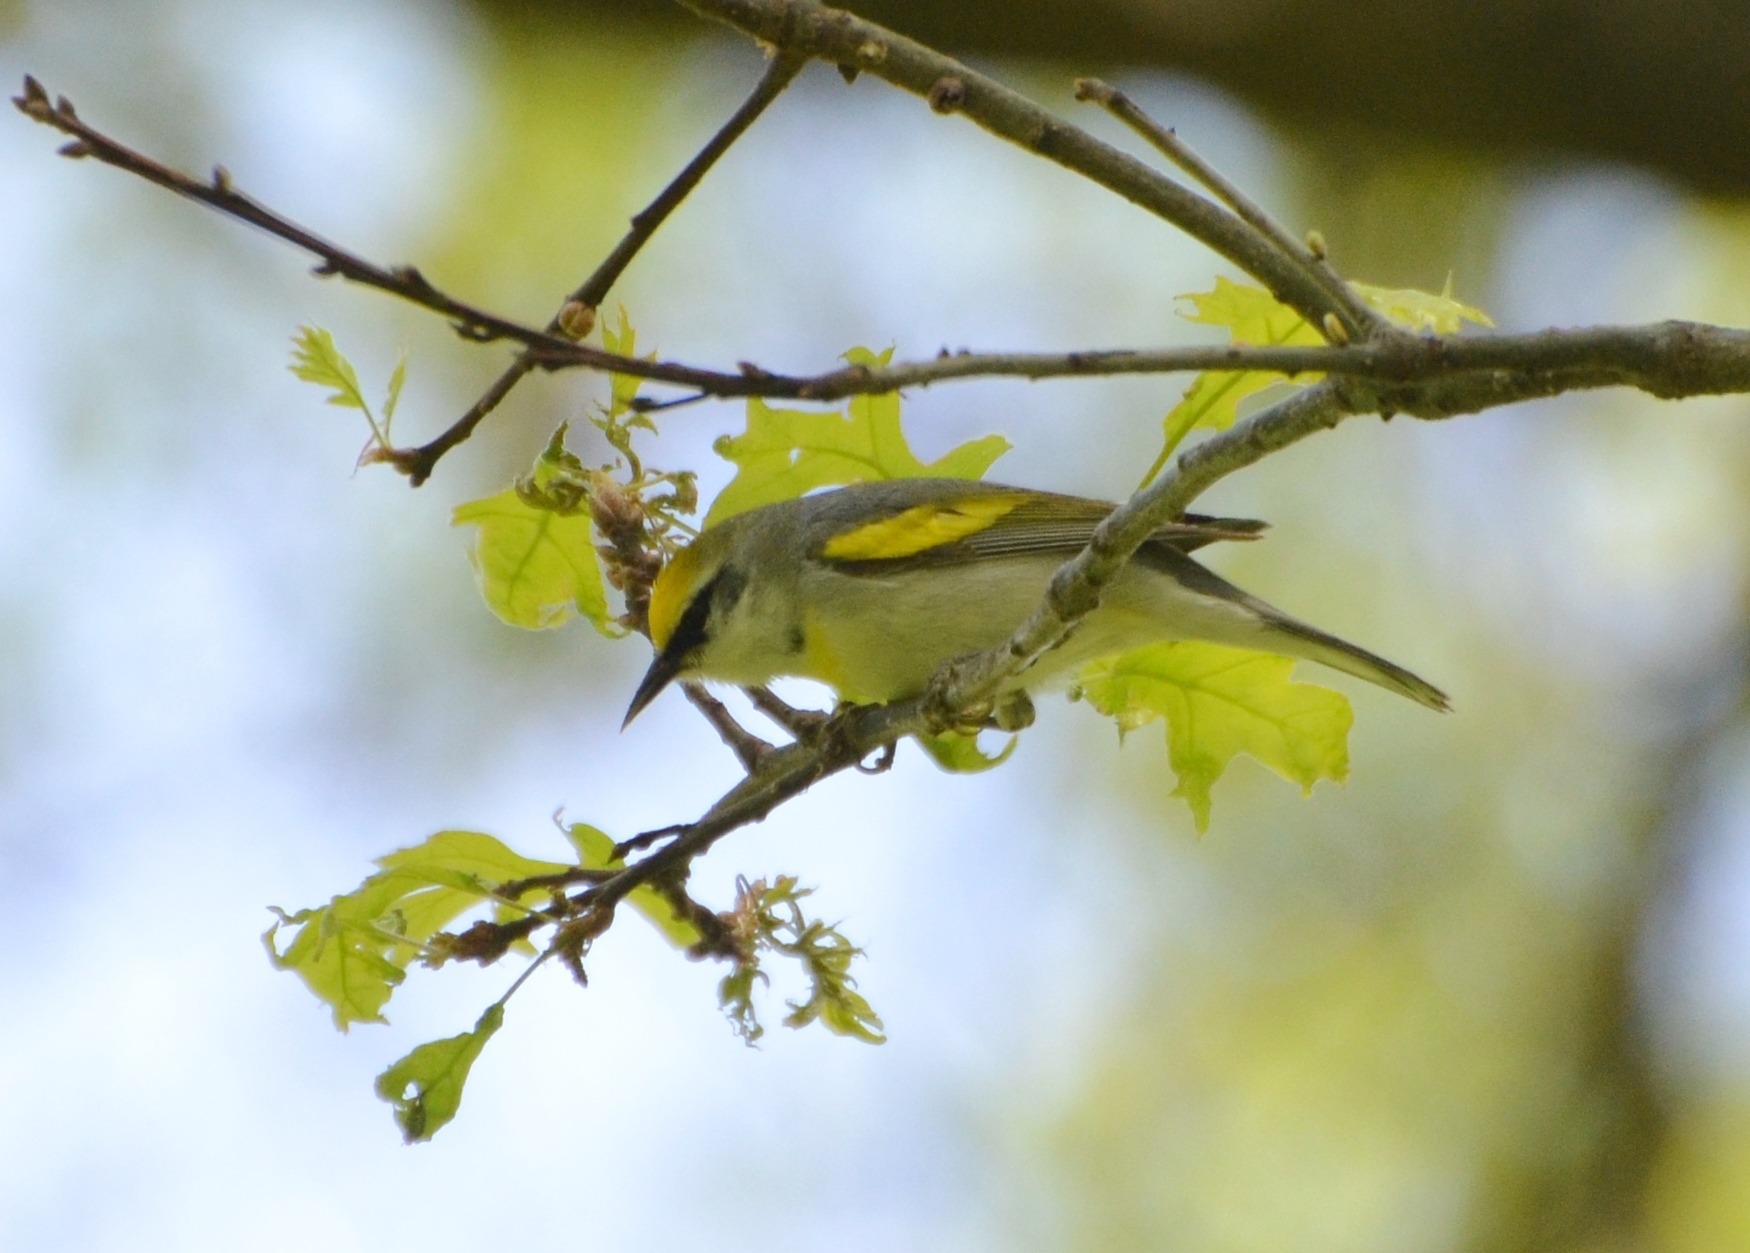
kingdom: Animalia
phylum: Chordata
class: Aves
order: Passeriformes
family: Parulidae
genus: Vermivora
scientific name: Vermivora
